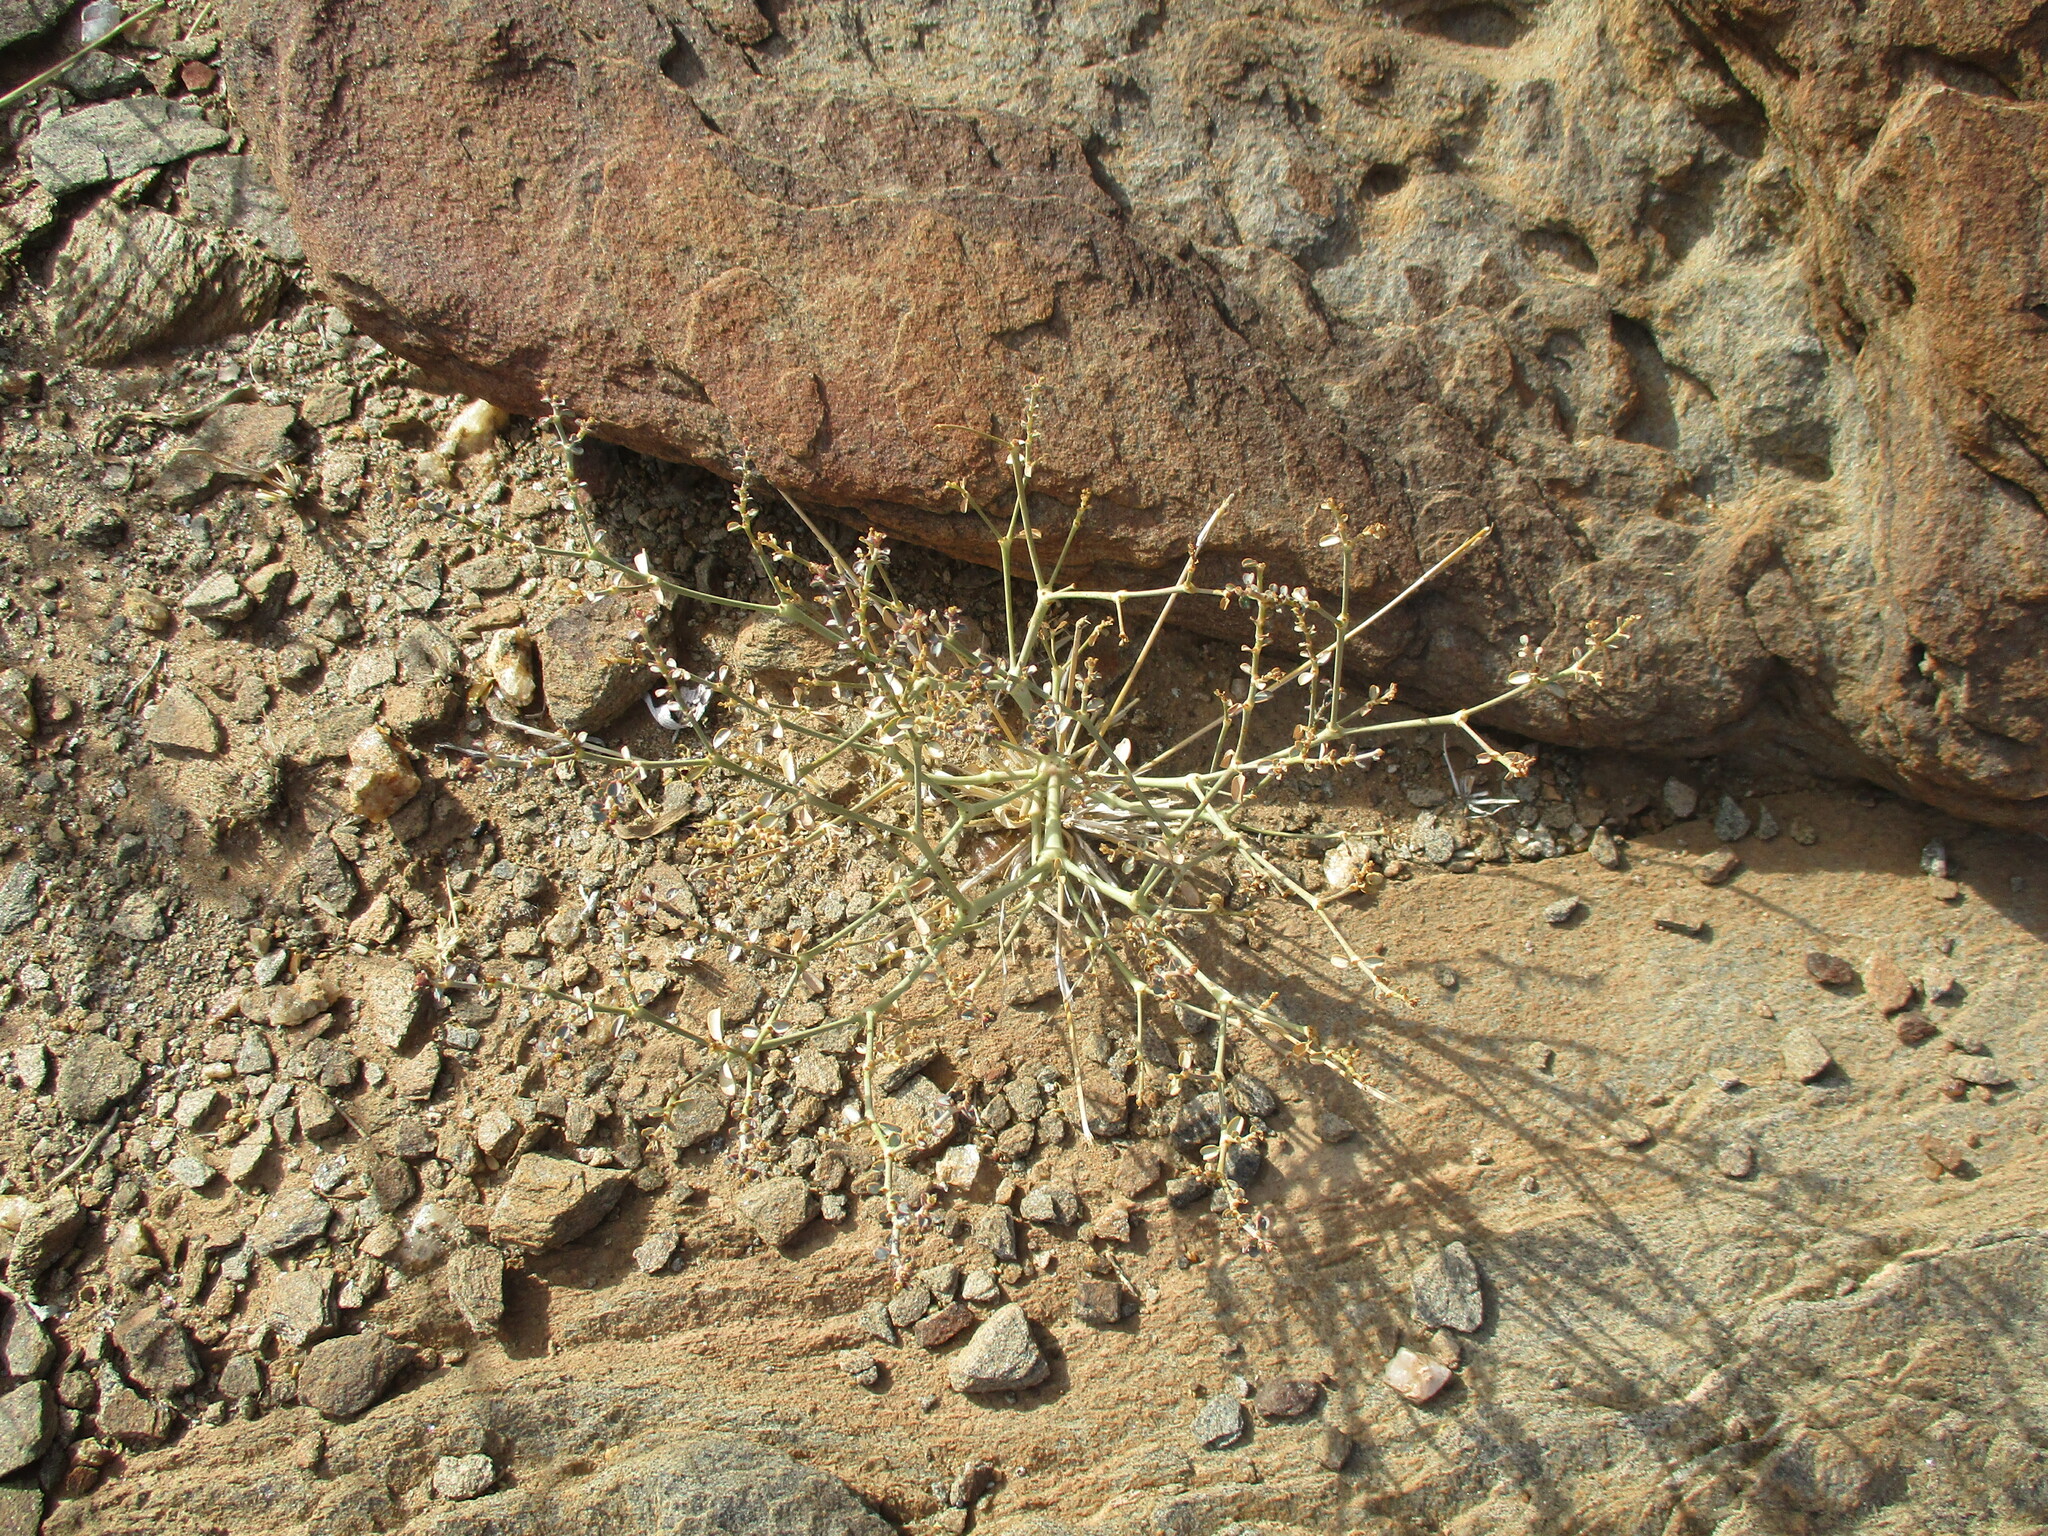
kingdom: Plantae
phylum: Tracheophyta
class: Magnoliopsida
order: Malpighiales
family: Euphorbiaceae
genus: Euphorbia
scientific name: Euphorbia glanduligera
